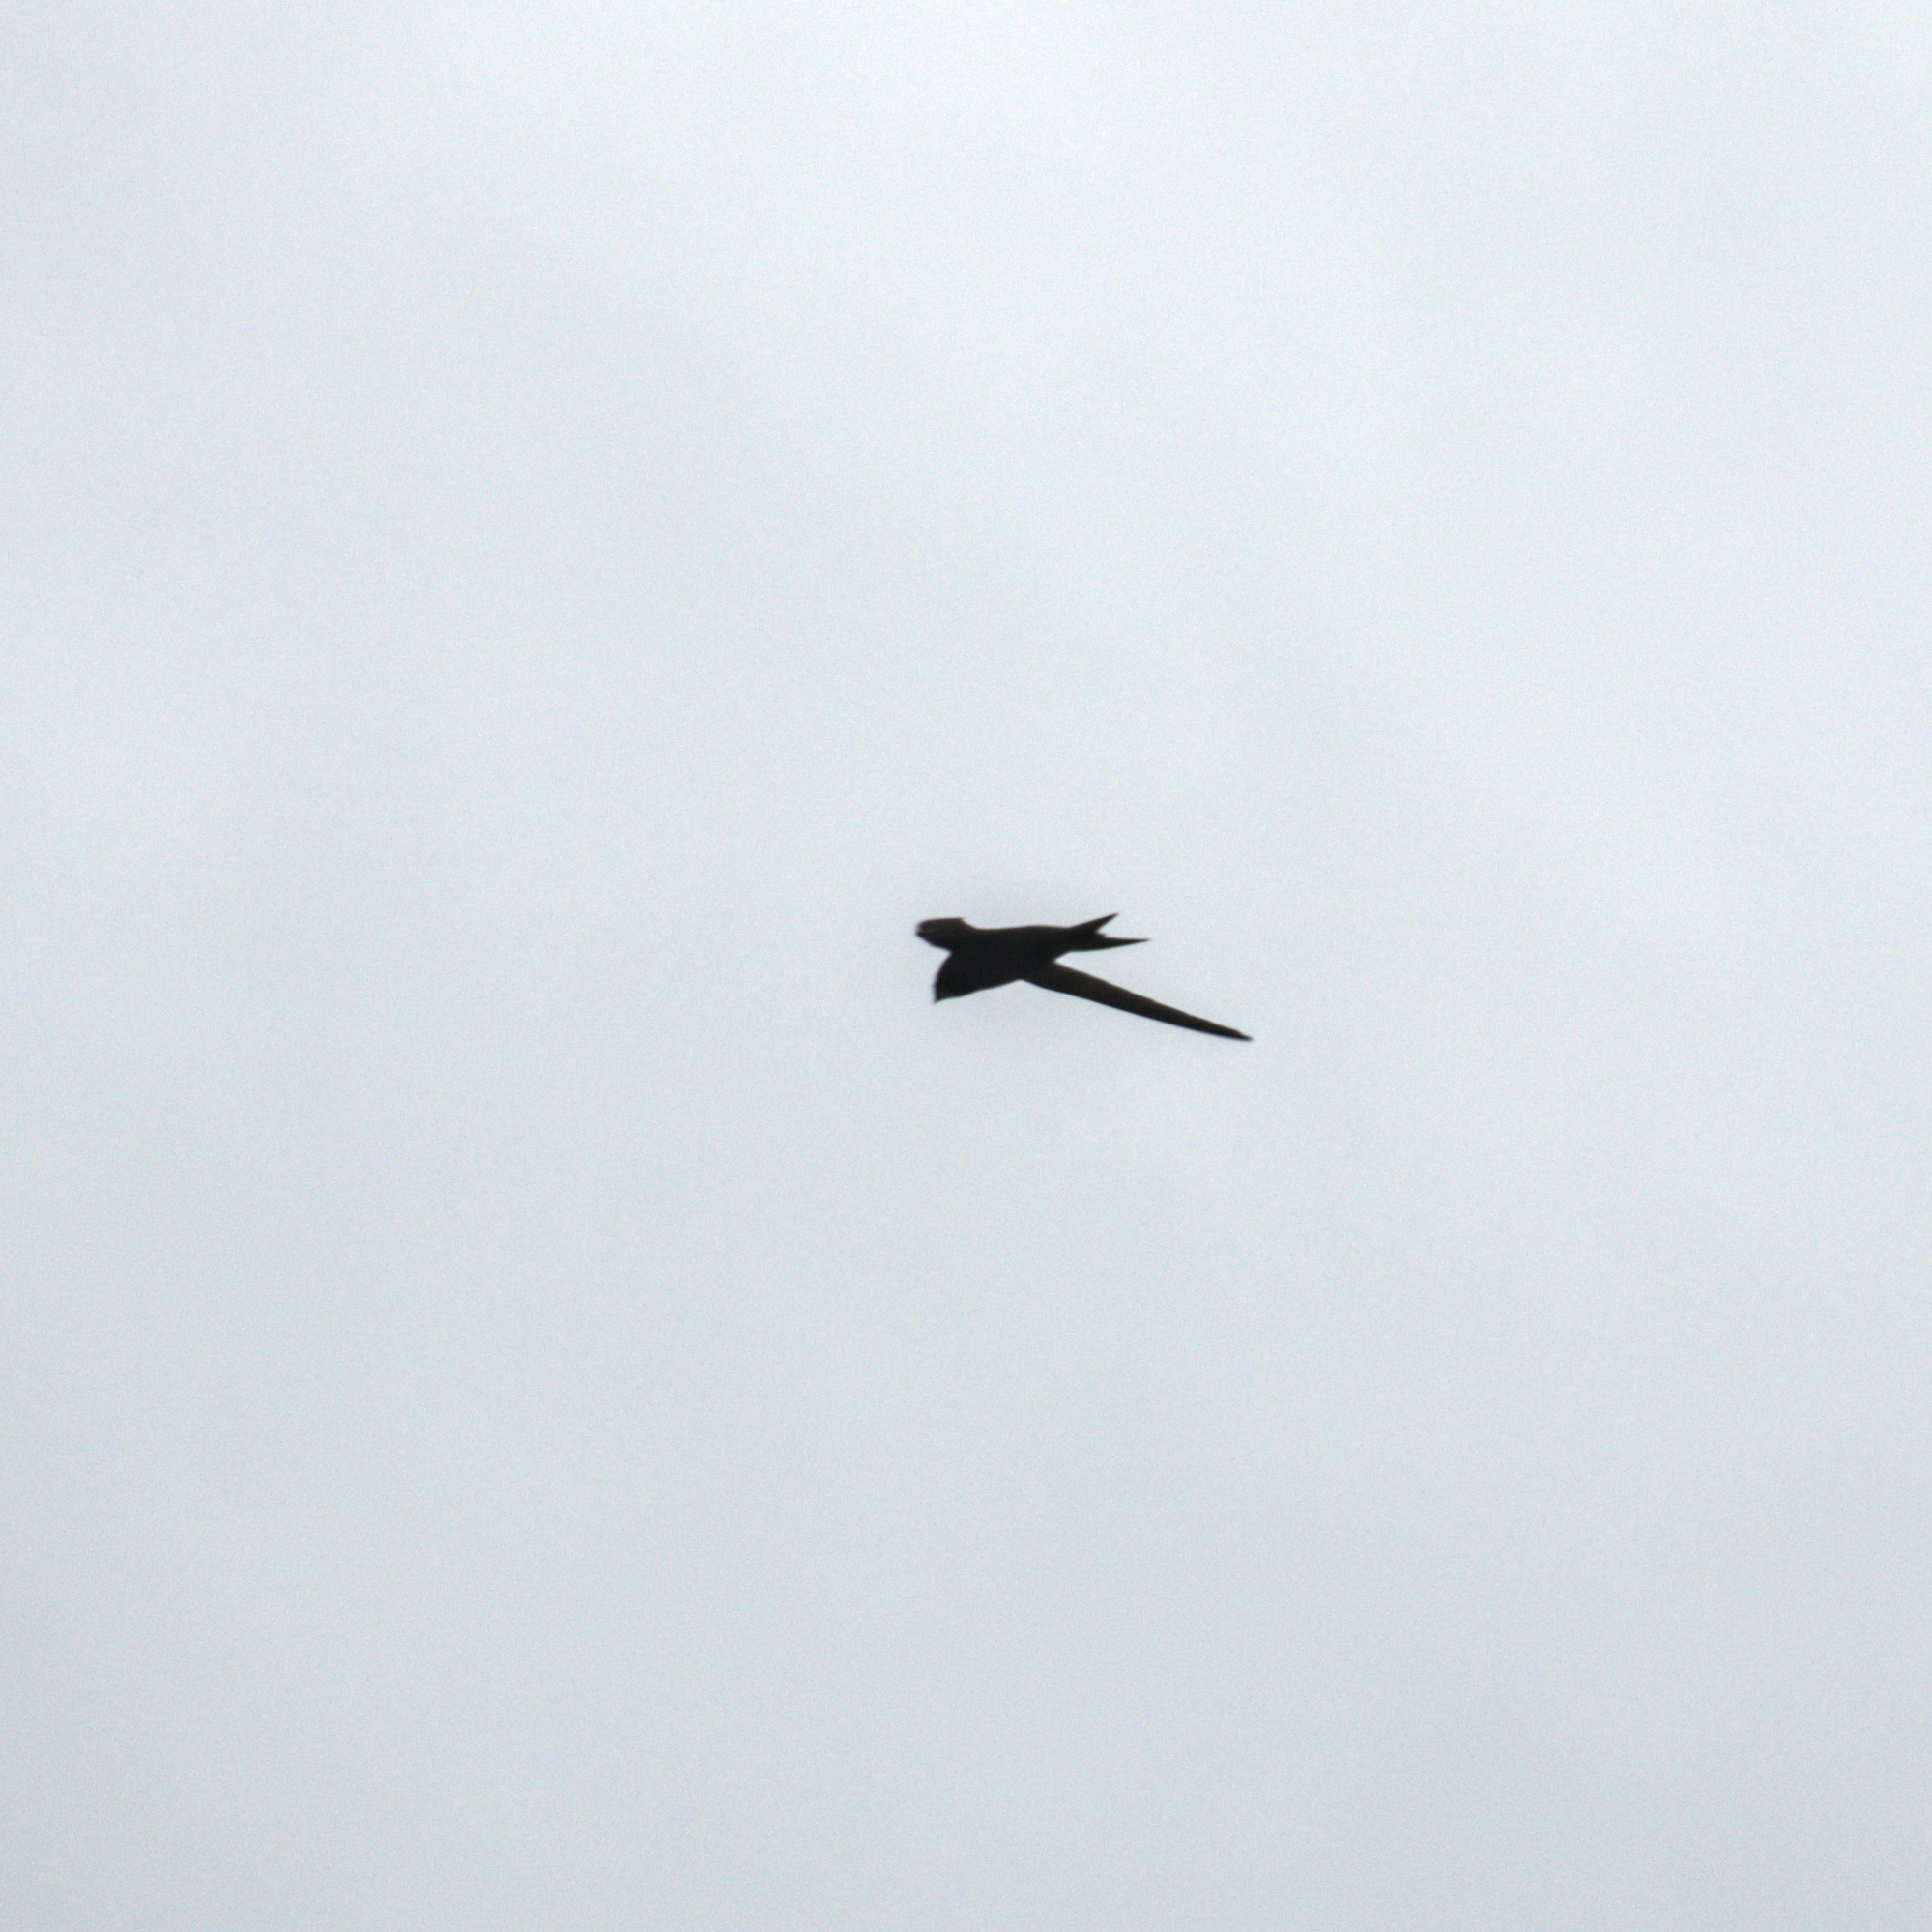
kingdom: Animalia
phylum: Chordata
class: Aves
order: Apodiformes
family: Apodidae
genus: Apus
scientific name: Apus apus
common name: Common swift
